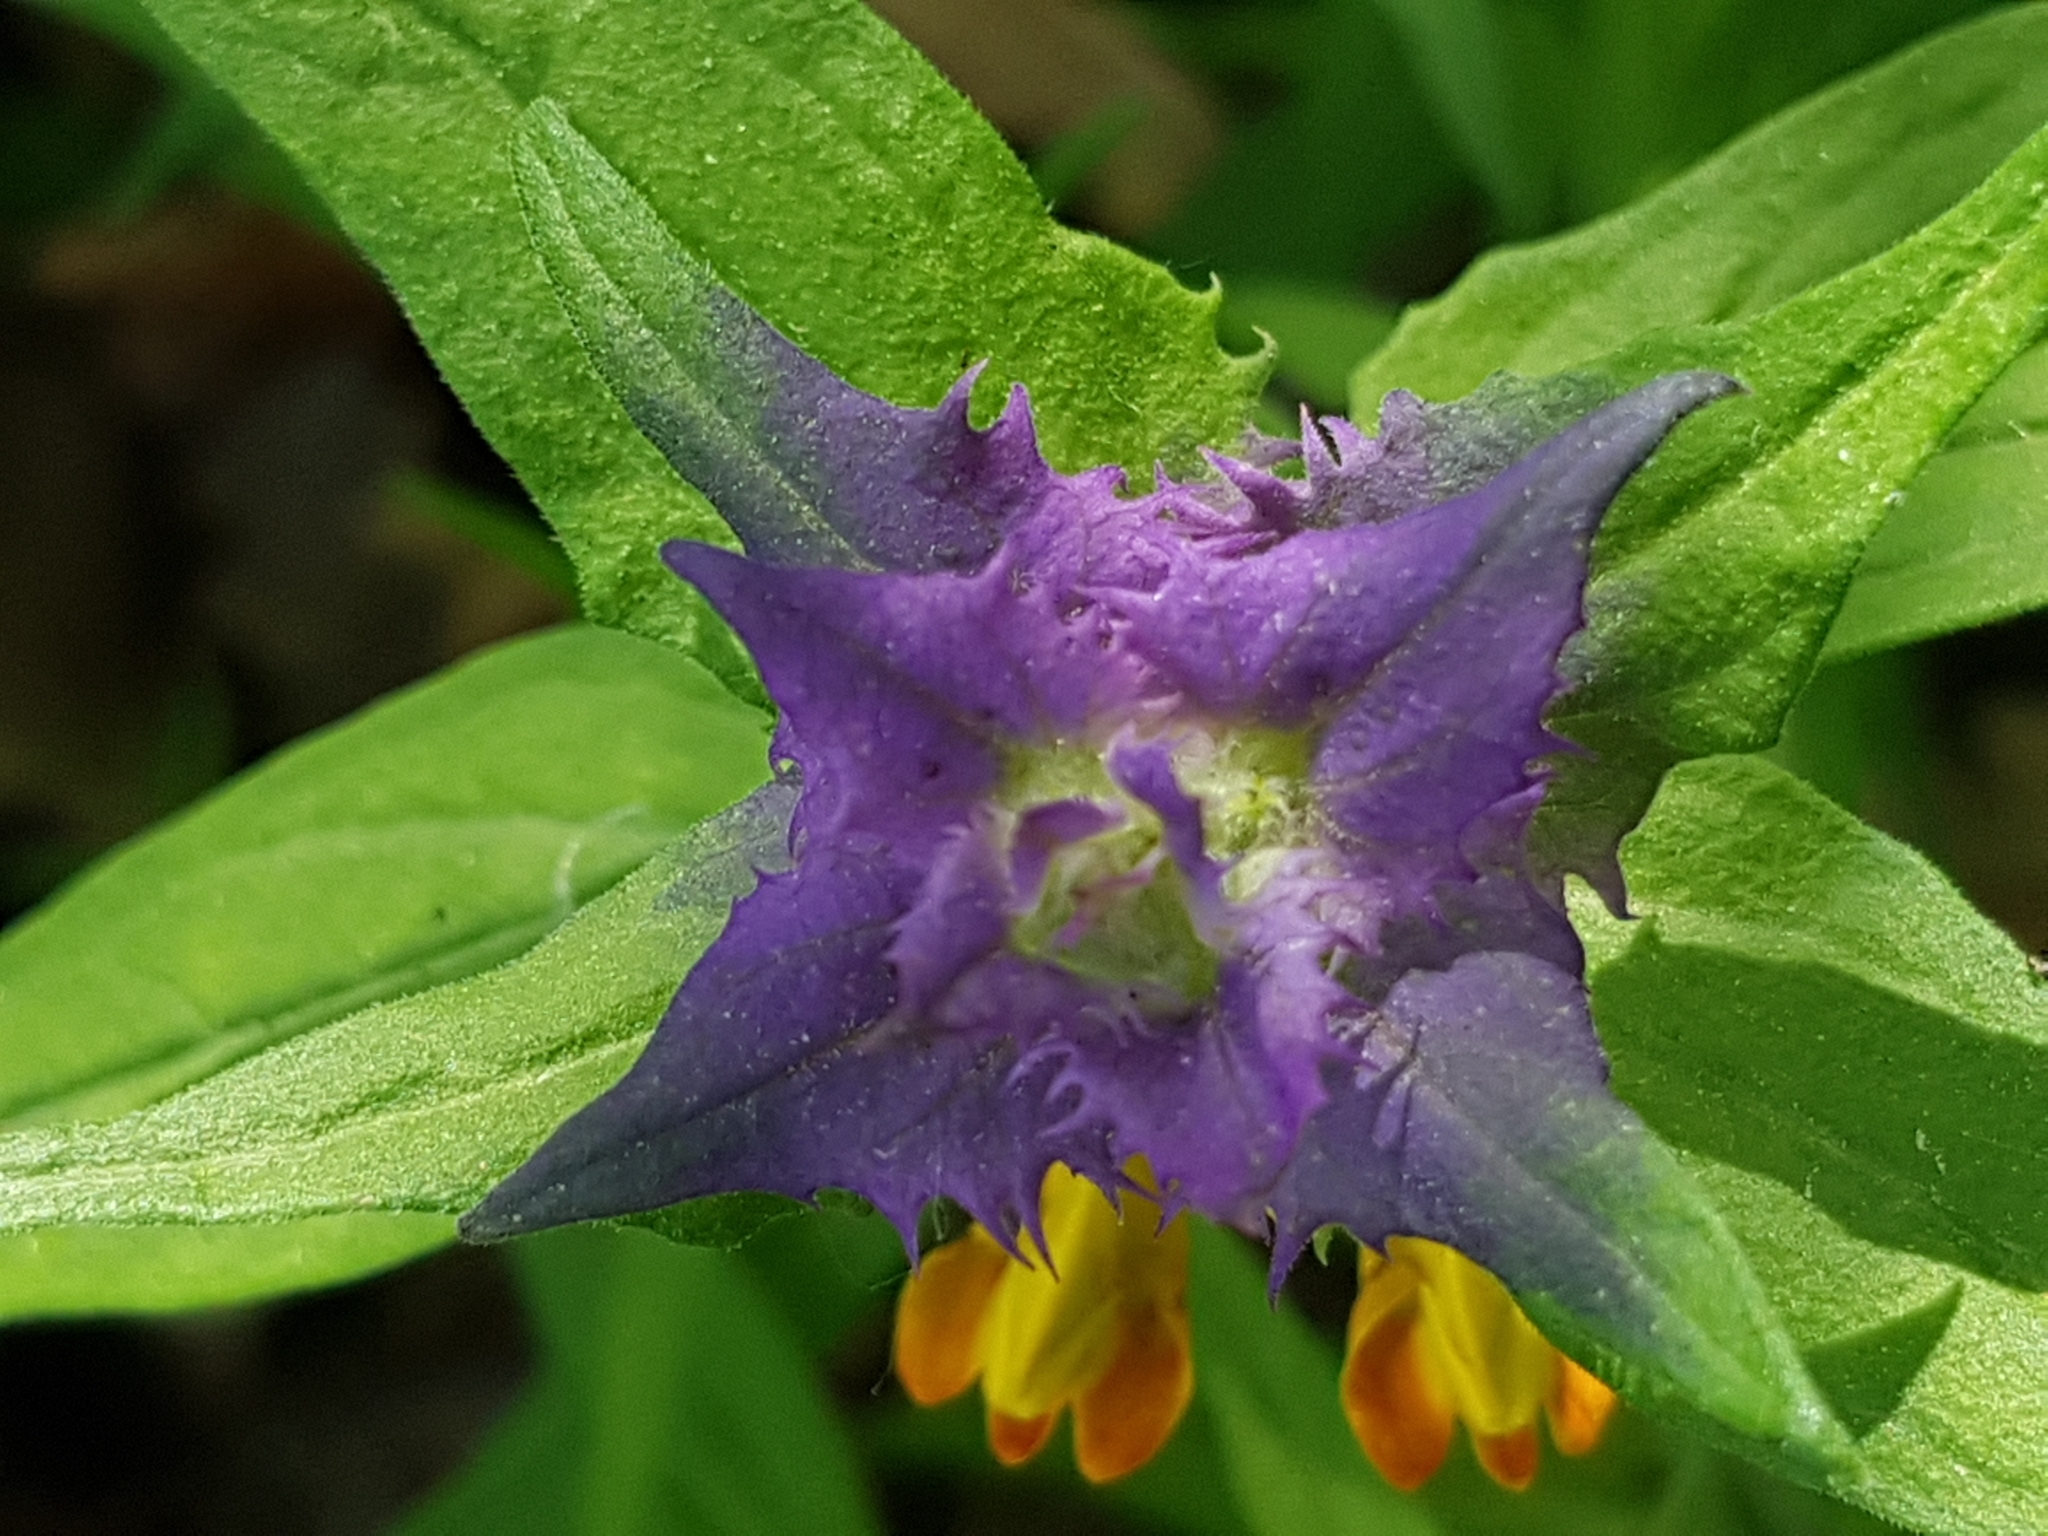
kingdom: Plantae
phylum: Tracheophyta
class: Magnoliopsida
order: Lamiales
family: Orobanchaceae
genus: Melampyrum
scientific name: Melampyrum nemorosum
